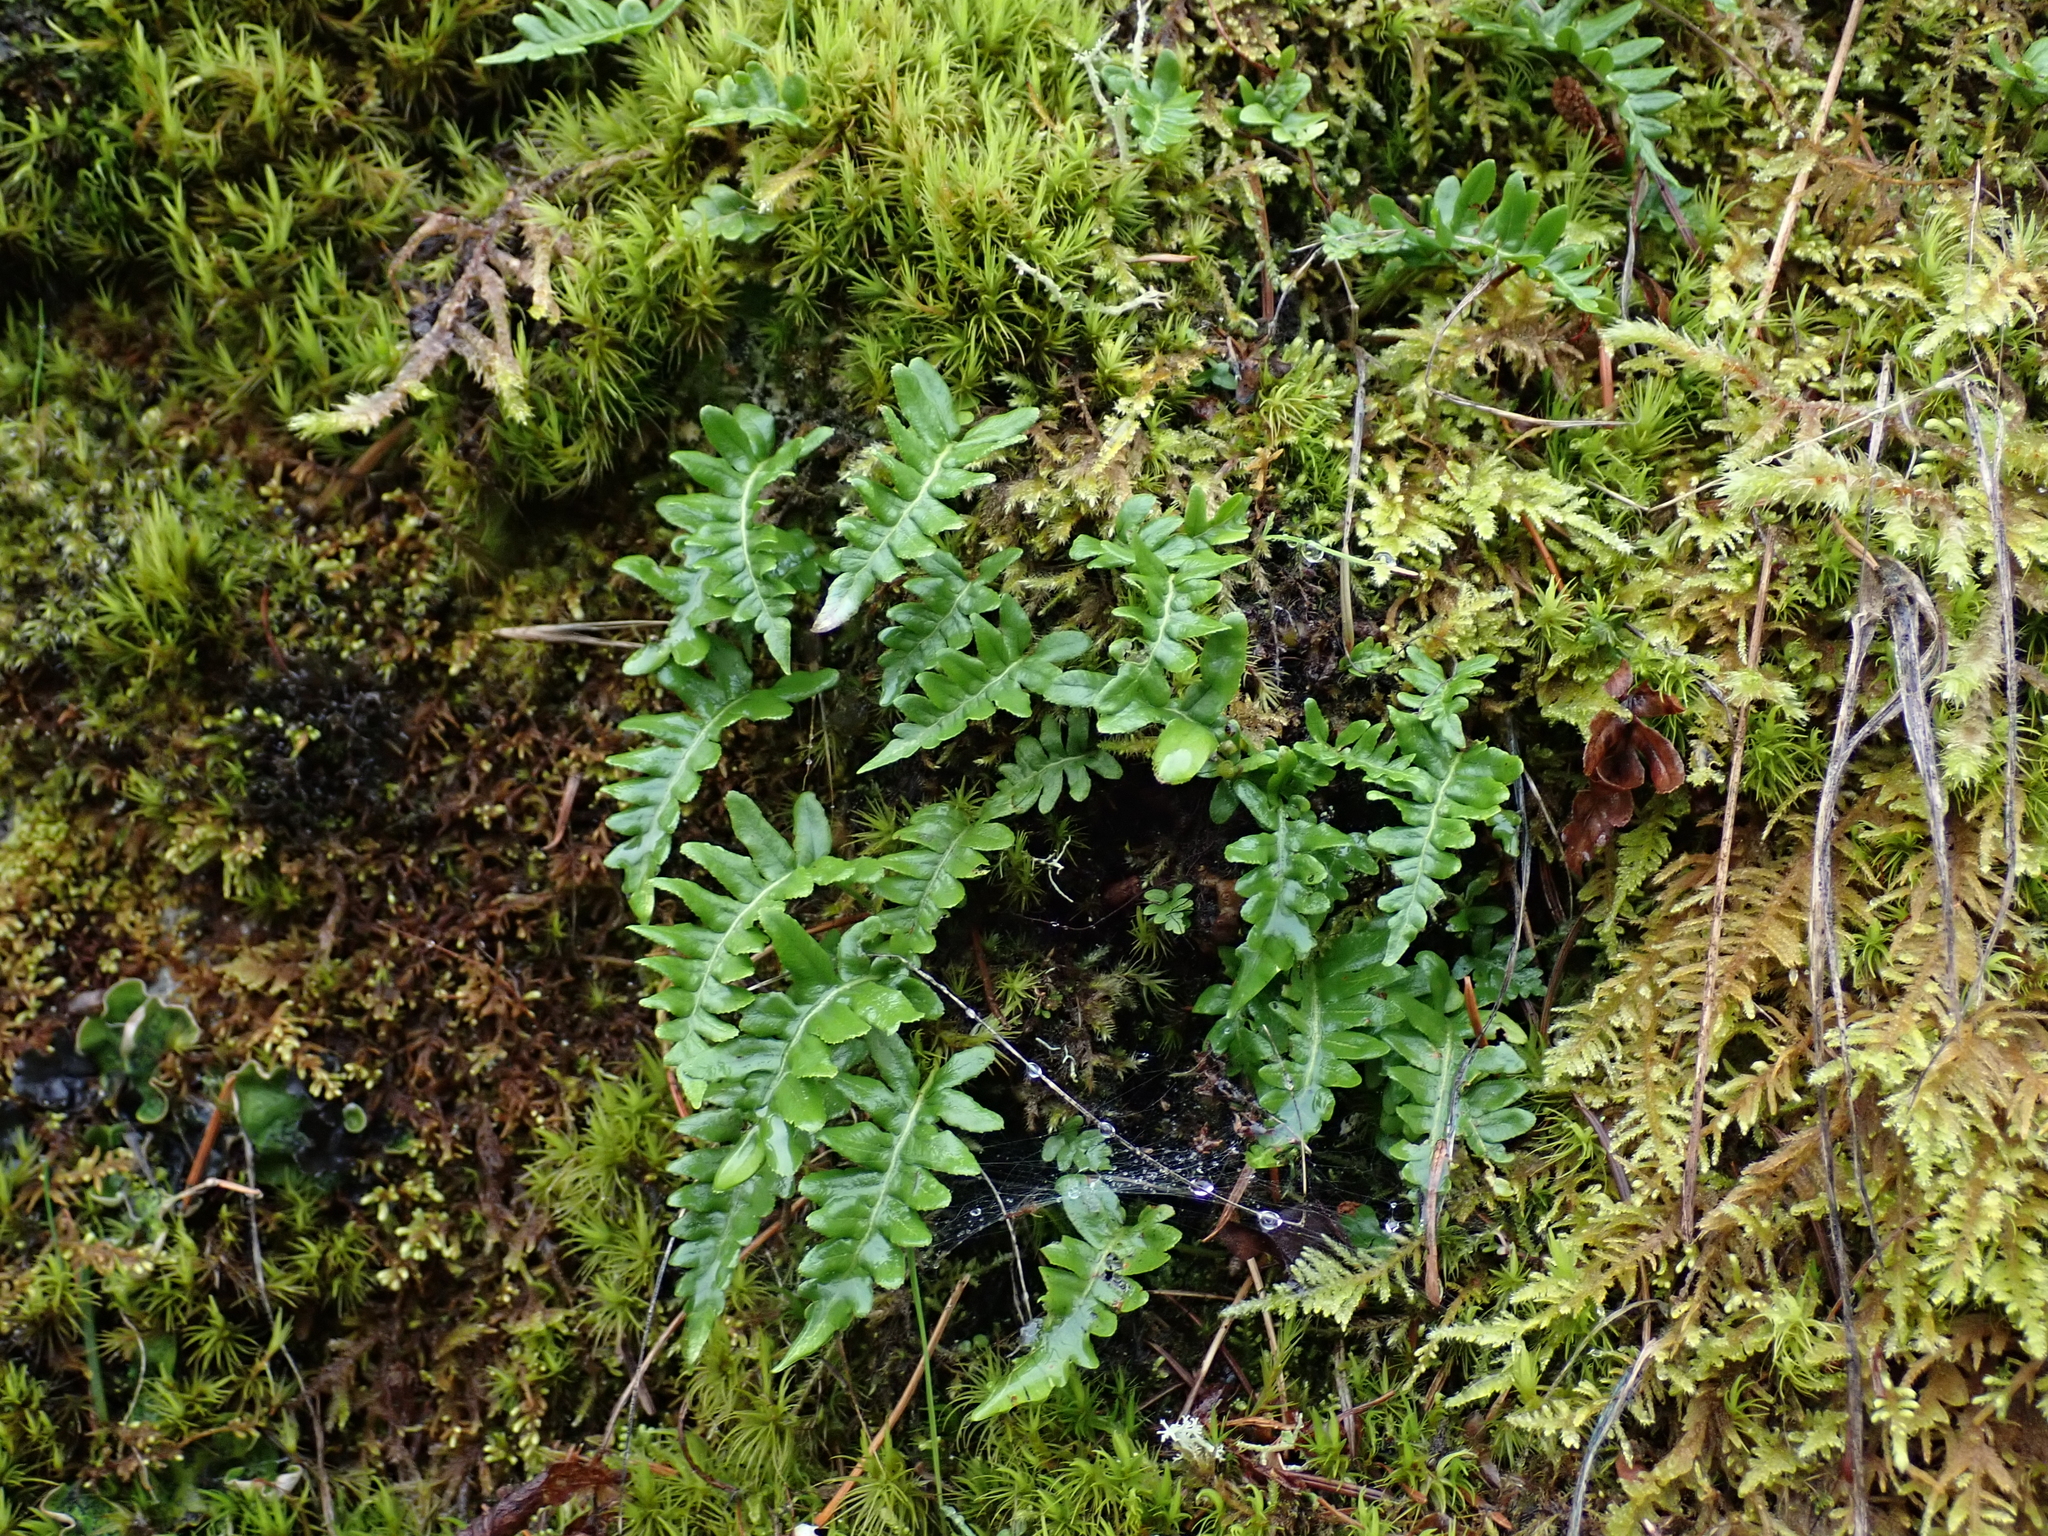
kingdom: Plantae
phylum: Tracheophyta
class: Polypodiopsida
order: Polypodiales
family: Polypodiaceae
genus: Polypodium
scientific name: Polypodium glycyrrhiza
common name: Licorice fern
